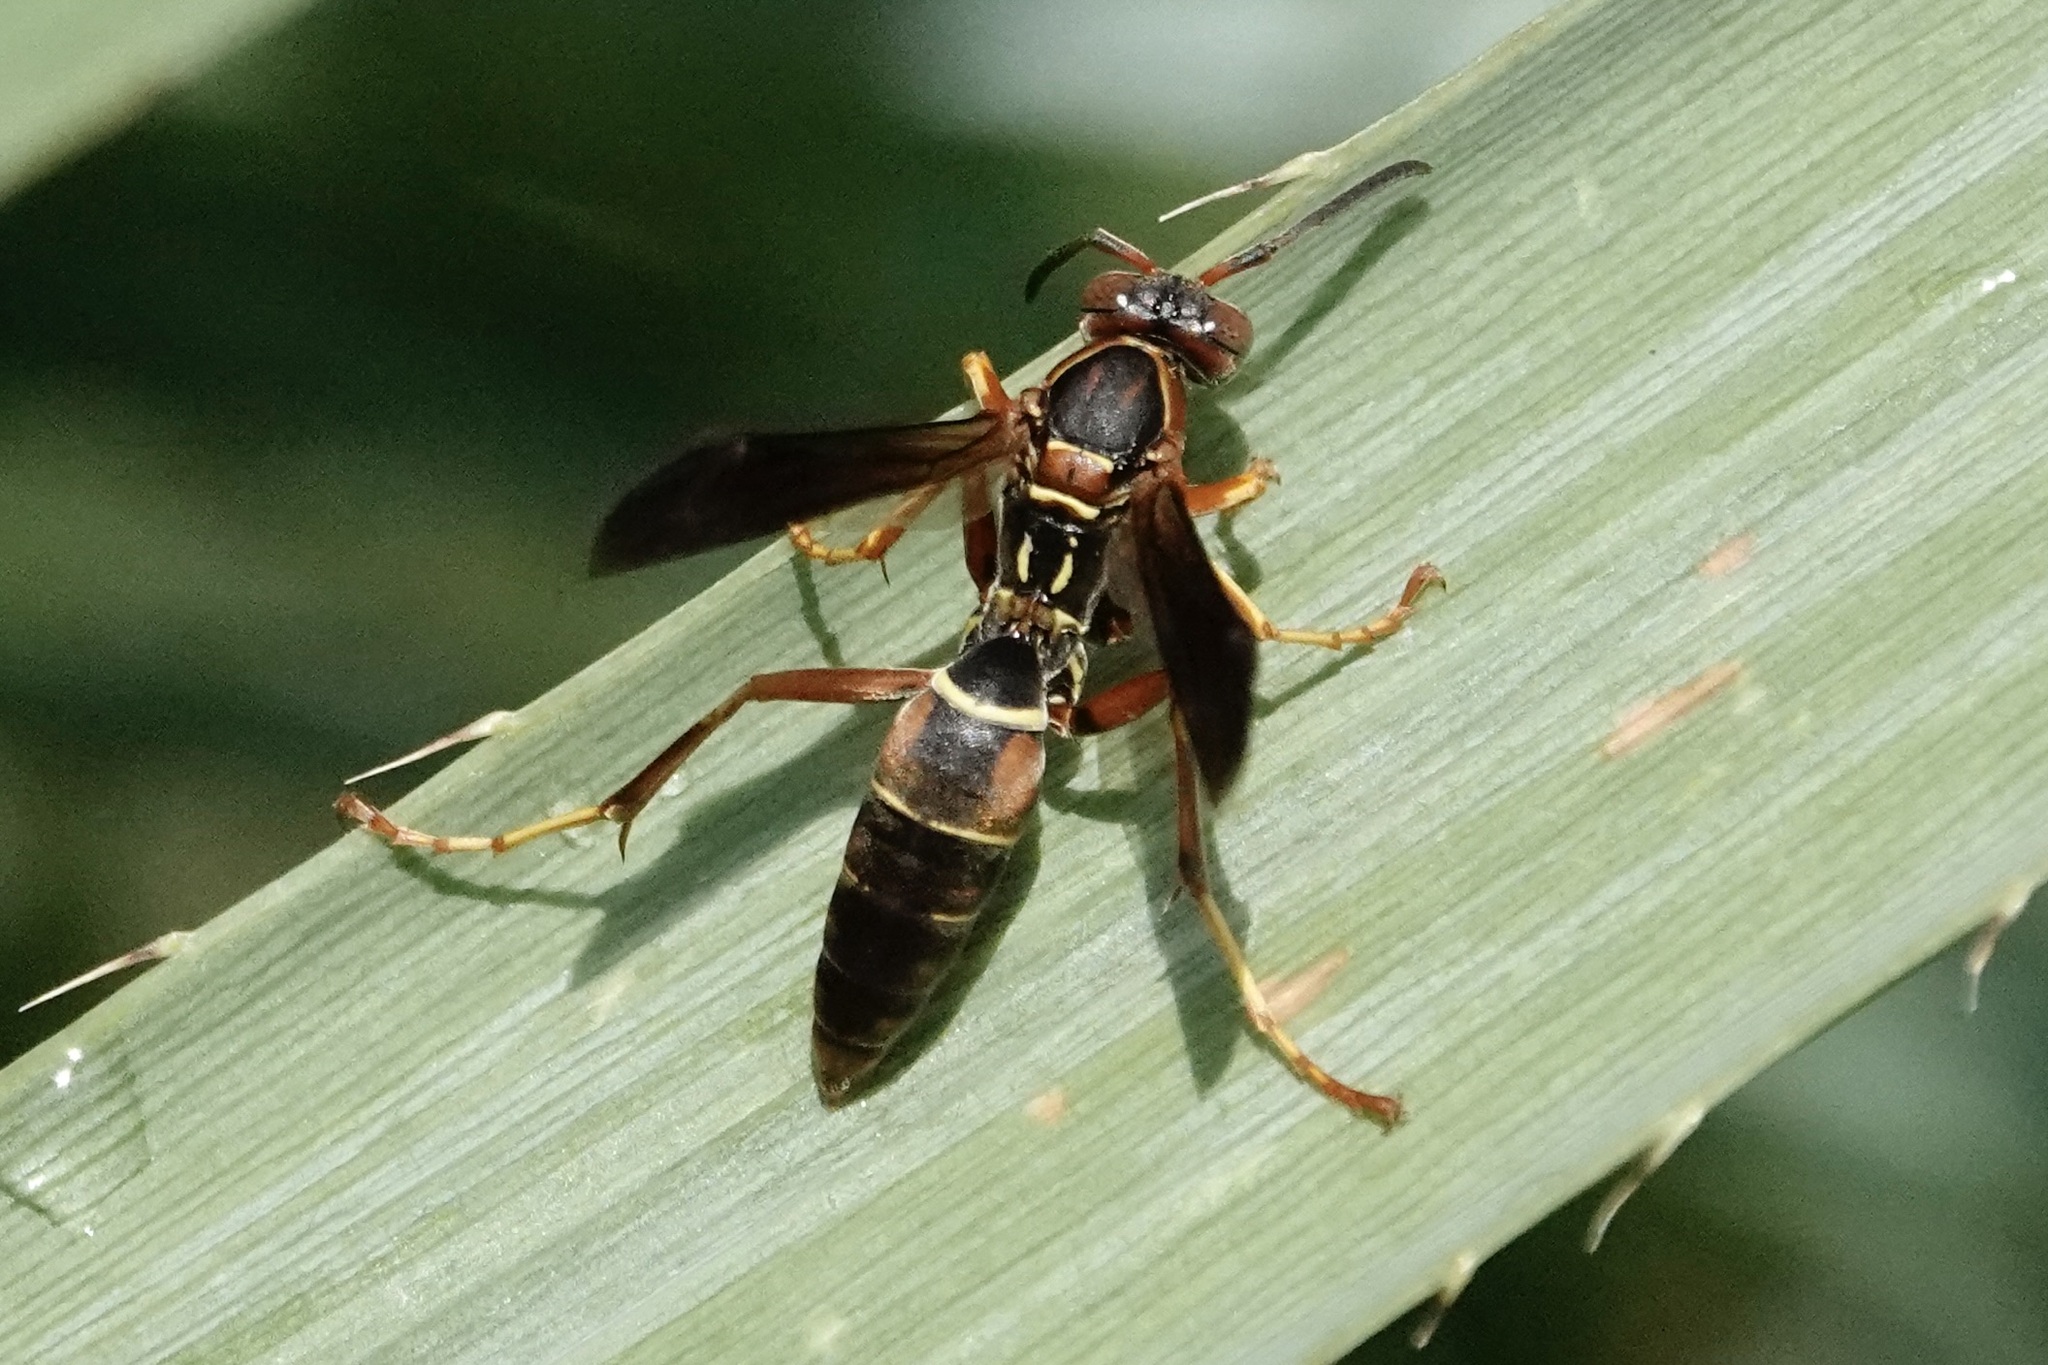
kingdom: Animalia
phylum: Arthropoda
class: Insecta
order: Hymenoptera
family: Eumenidae
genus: Polistes
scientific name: Polistes fuscatus
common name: Dark paper wasp
